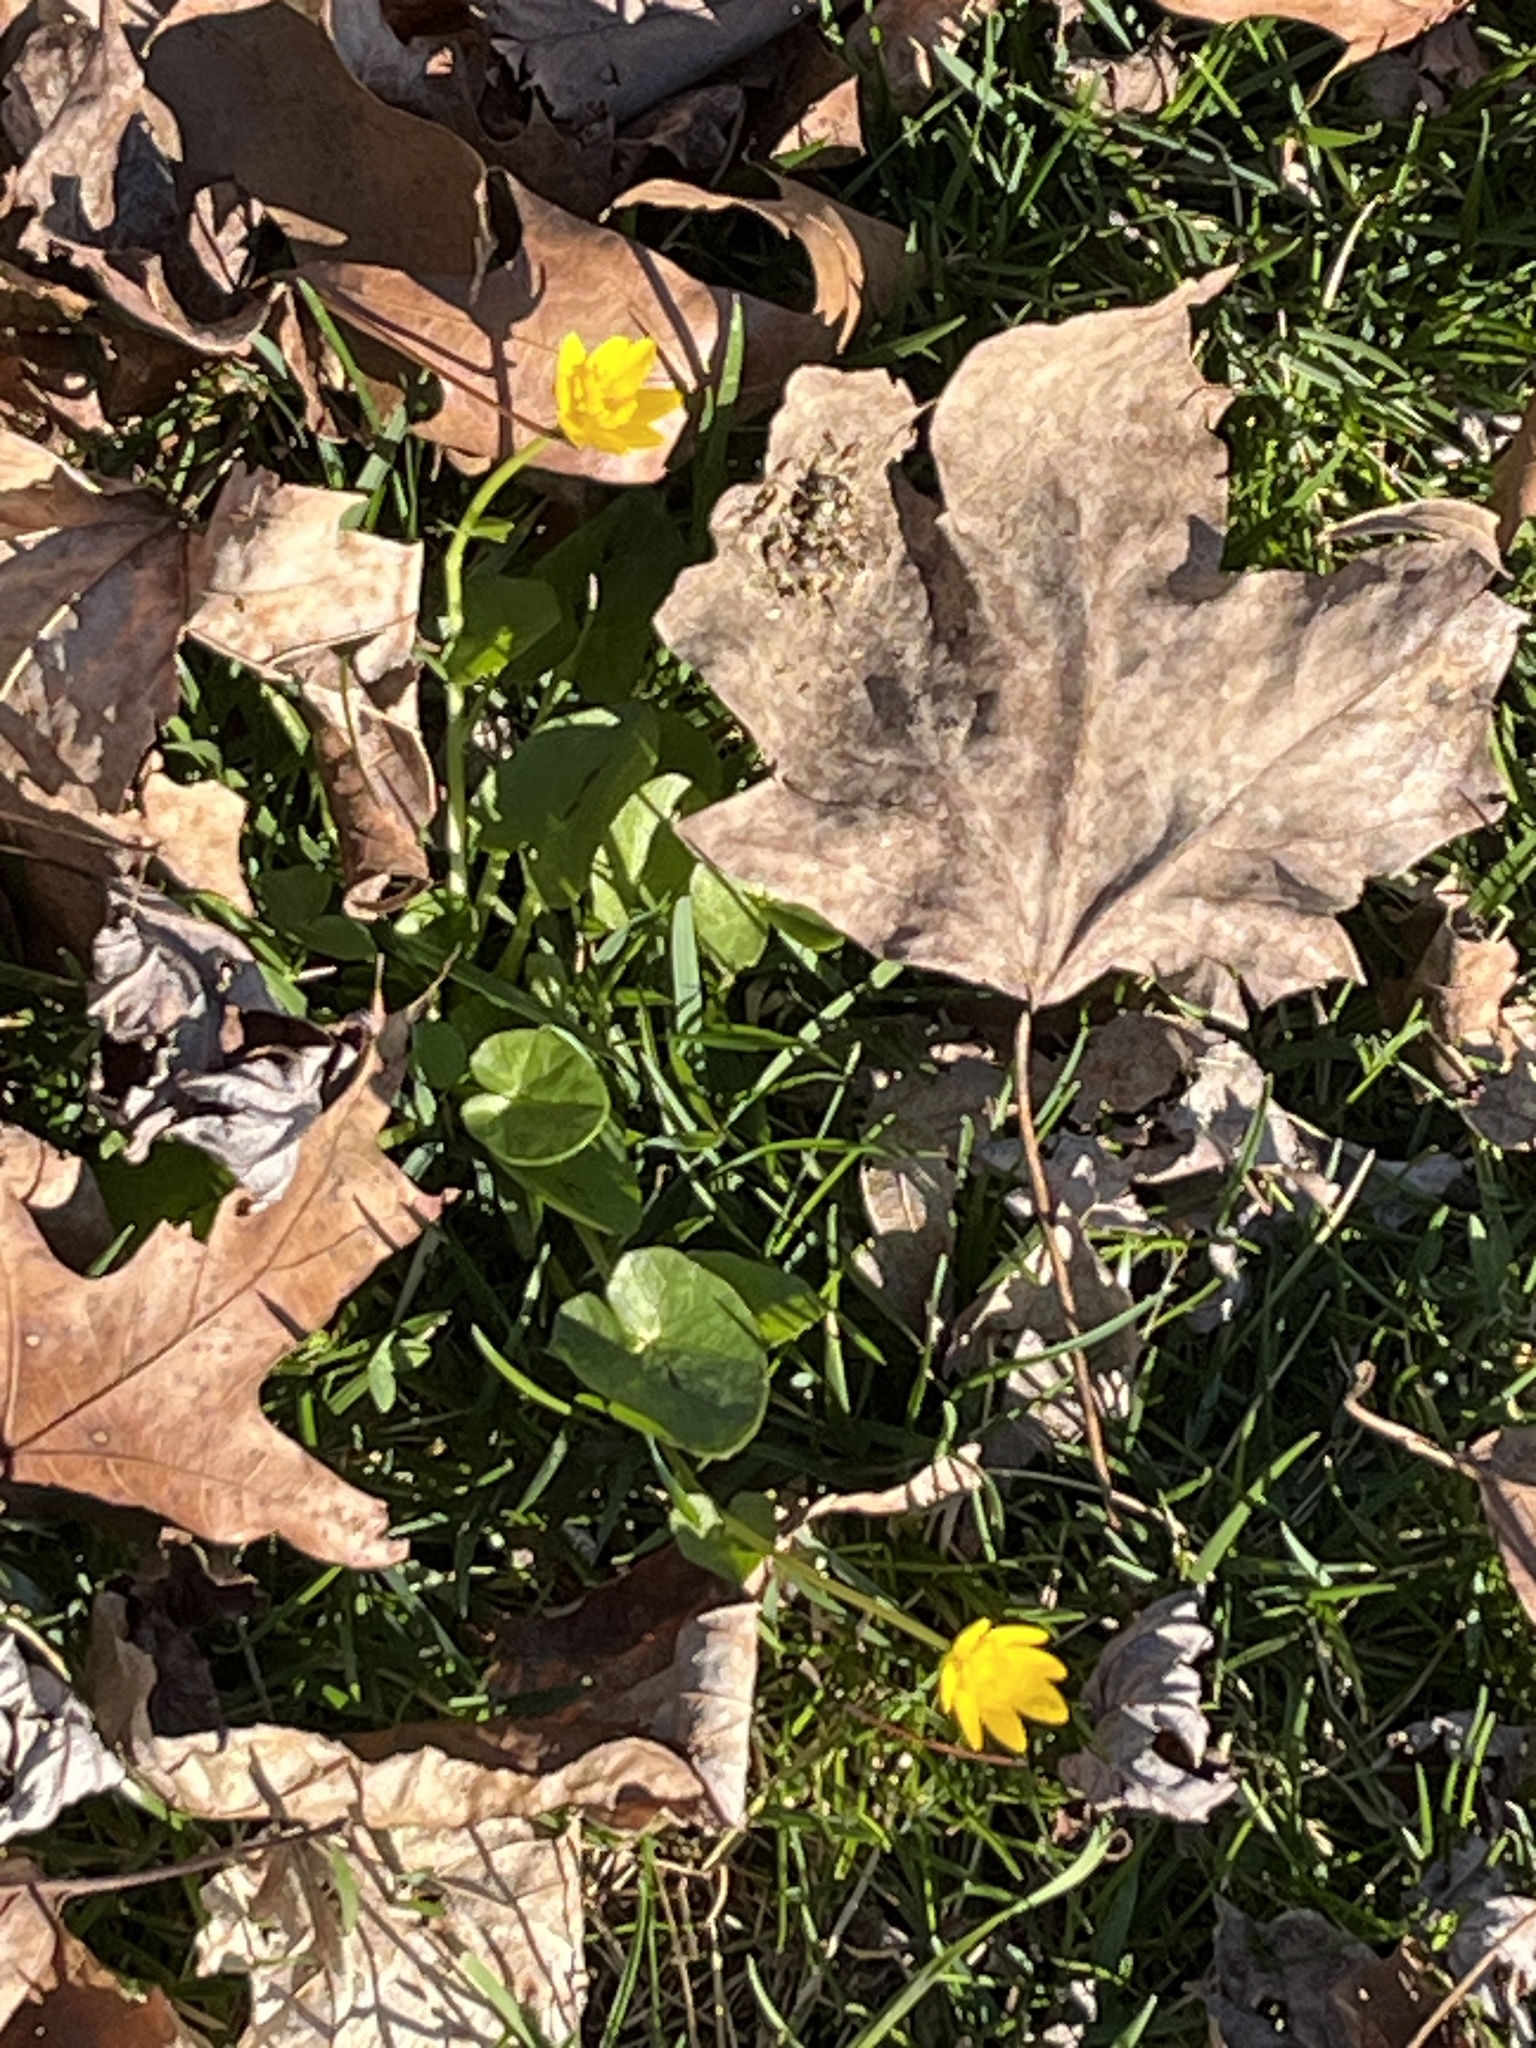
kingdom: Plantae
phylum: Tracheophyta
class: Magnoliopsida
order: Ranunculales
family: Ranunculaceae
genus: Ficaria
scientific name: Ficaria verna
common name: Lesser celandine
